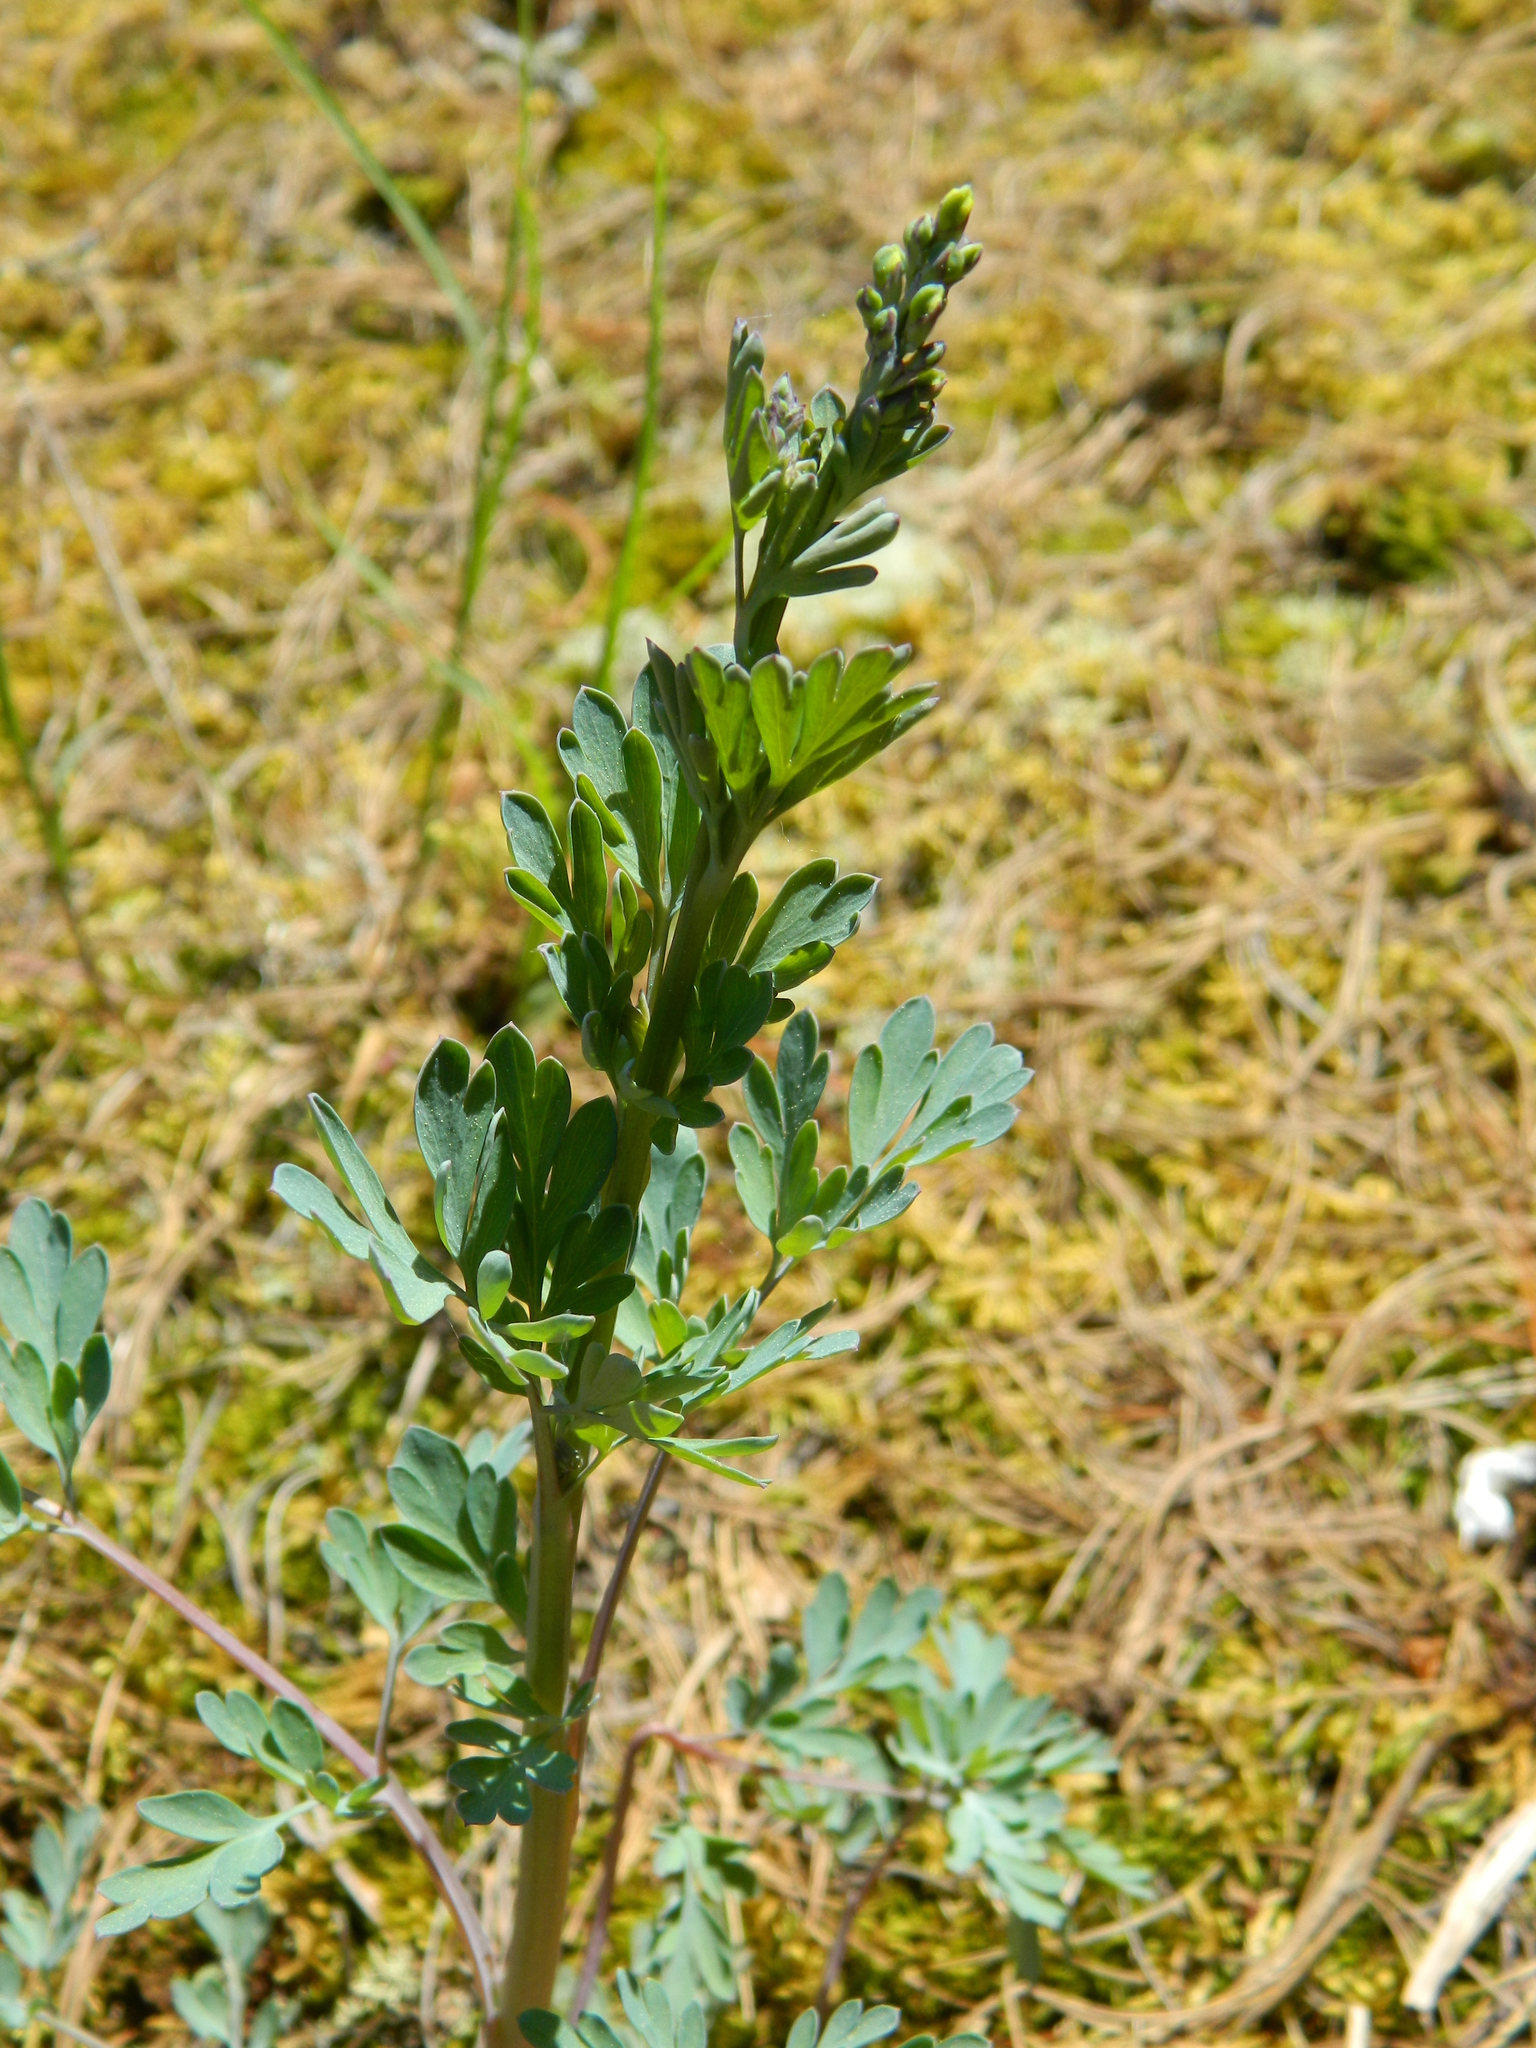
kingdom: Plantae
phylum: Tracheophyta
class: Magnoliopsida
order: Ranunculales
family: Papaveraceae
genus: Capnoides
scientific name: Capnoides sempervirens
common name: Rock harlequin
